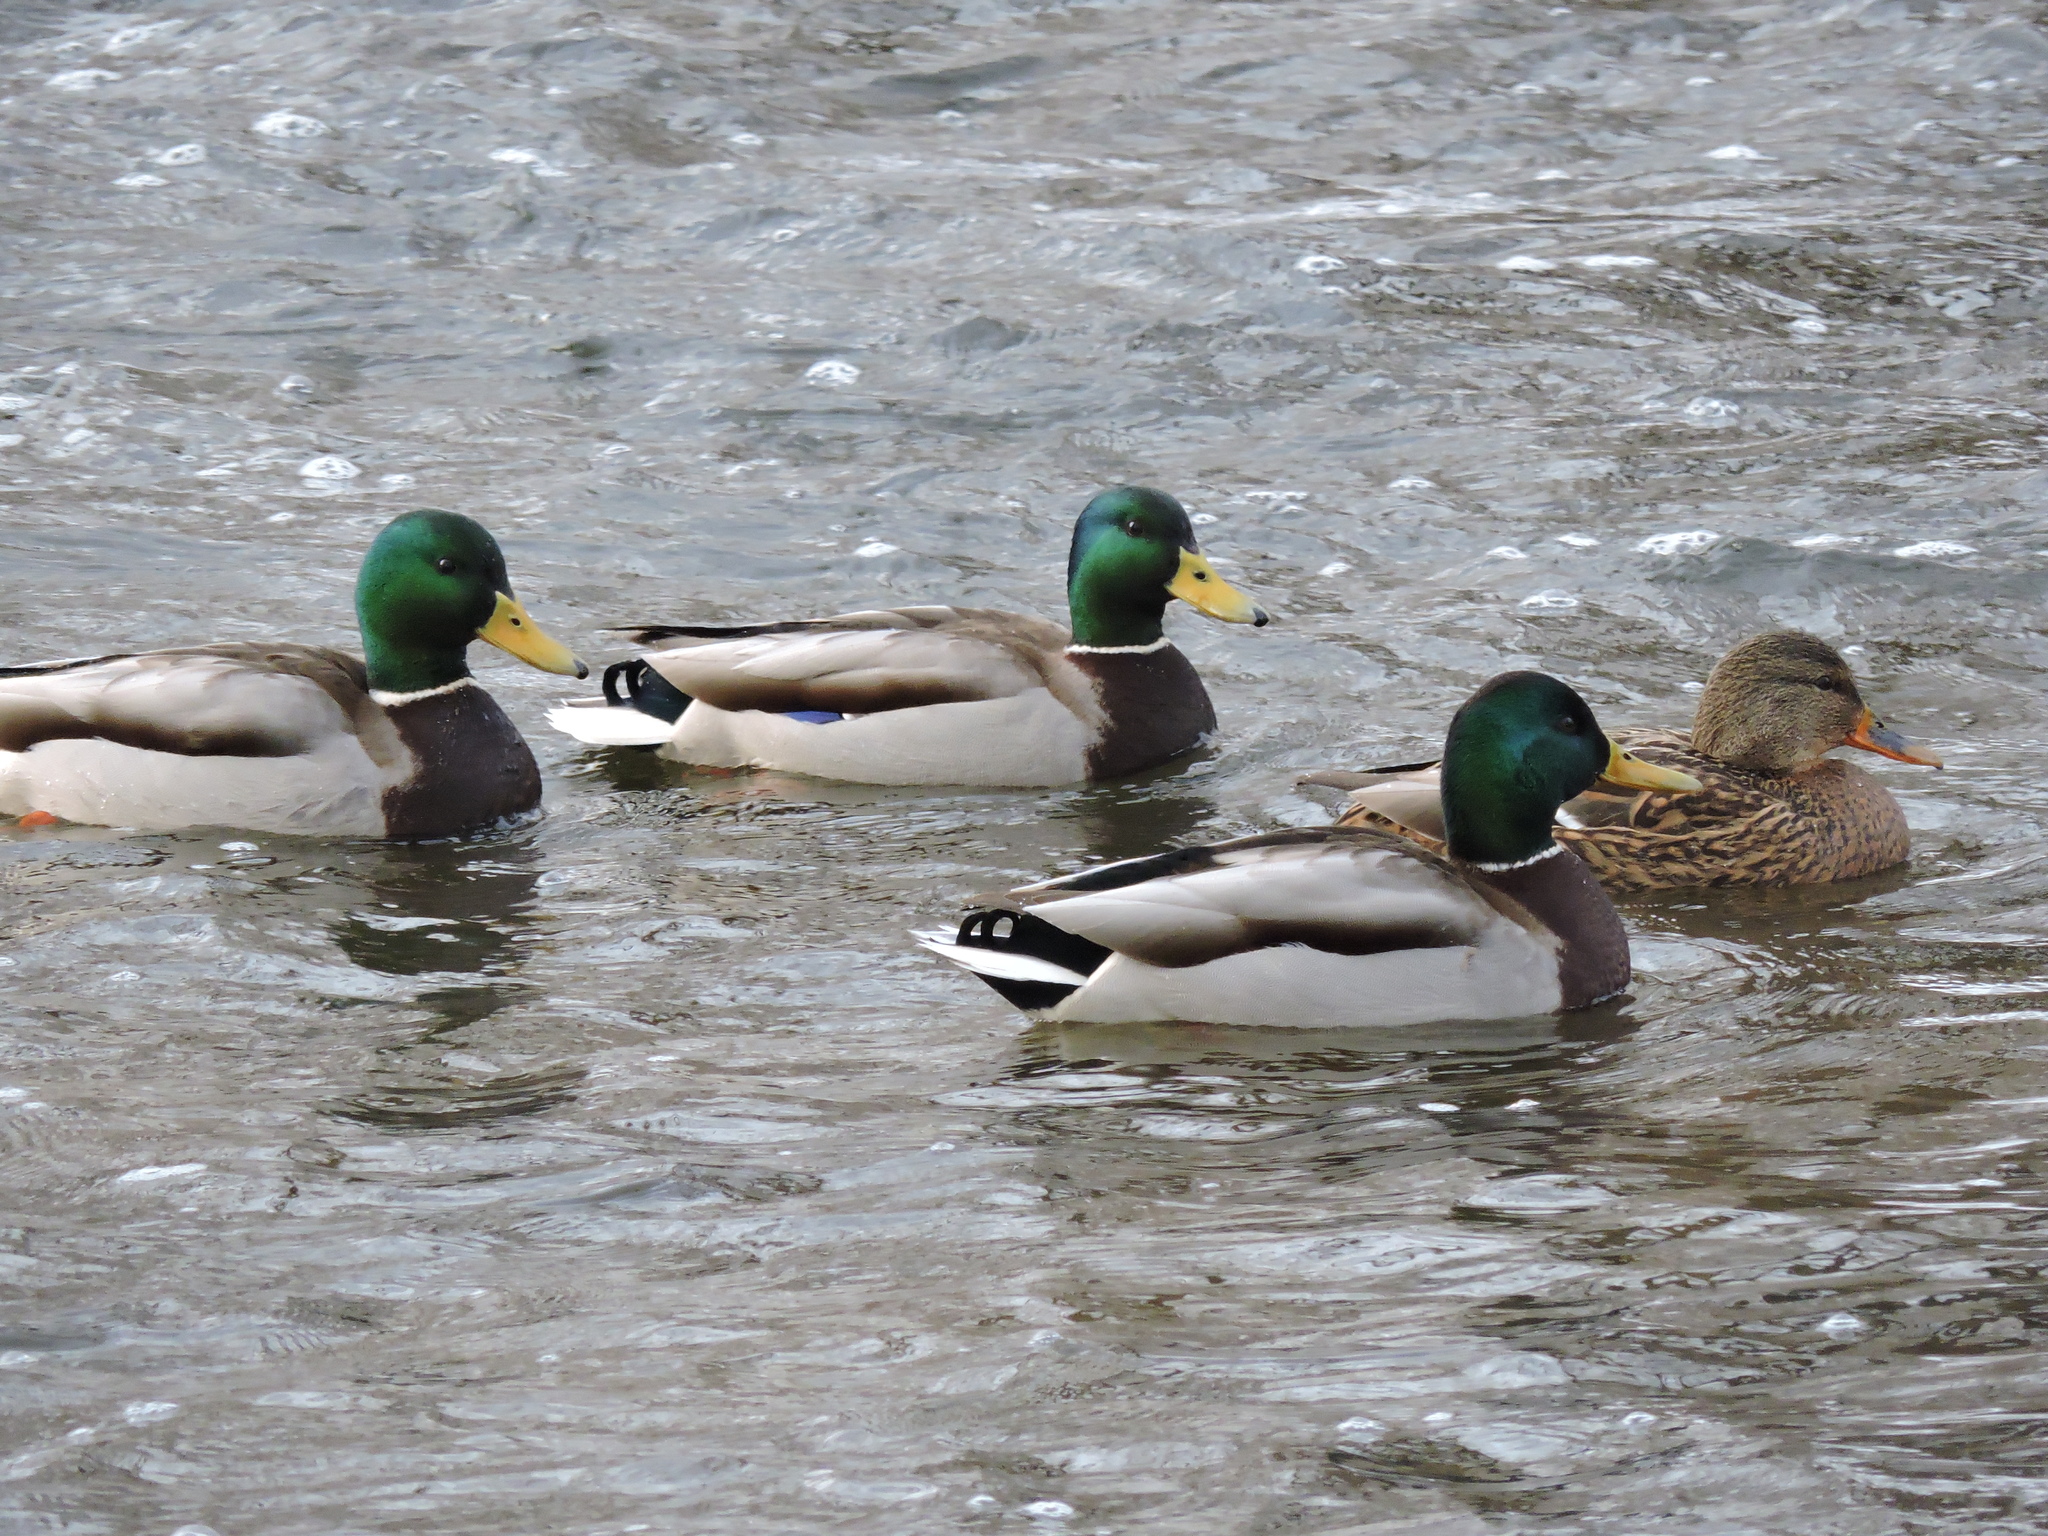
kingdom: Animalia
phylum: Chordata
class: Aves
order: Anseriformes
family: Anatidae
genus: Anas
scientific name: Anas platyrhynchos
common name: Mallard
